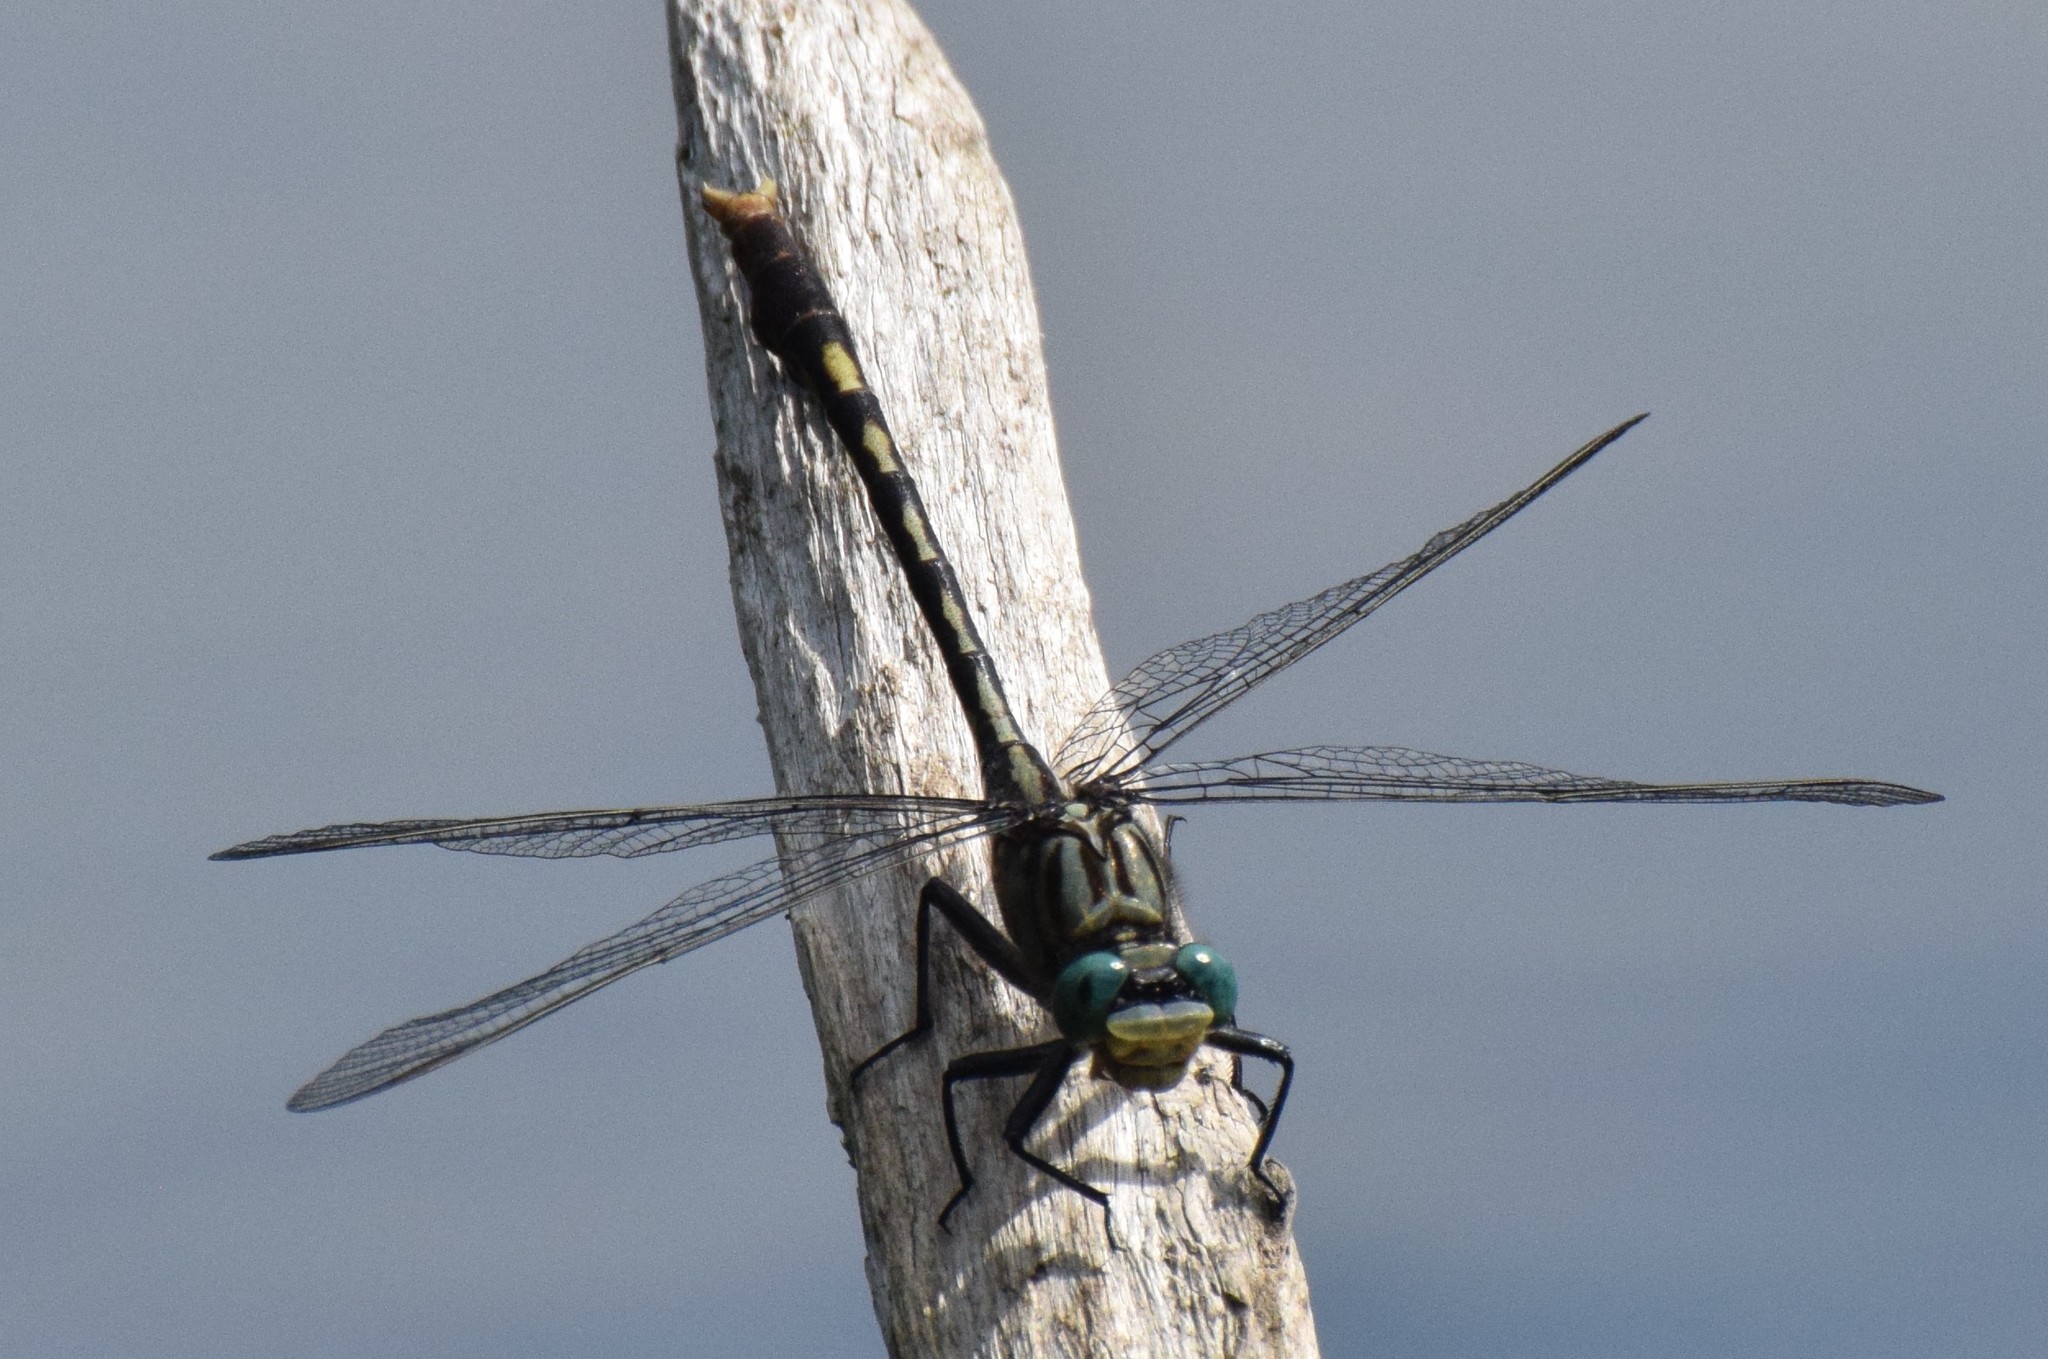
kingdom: Animalia
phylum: Arthropoda
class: Insecta
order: Odonata
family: Gomphidae
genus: Arigomphus
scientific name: Arigomphus villosipes
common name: Unicorn clubtail
